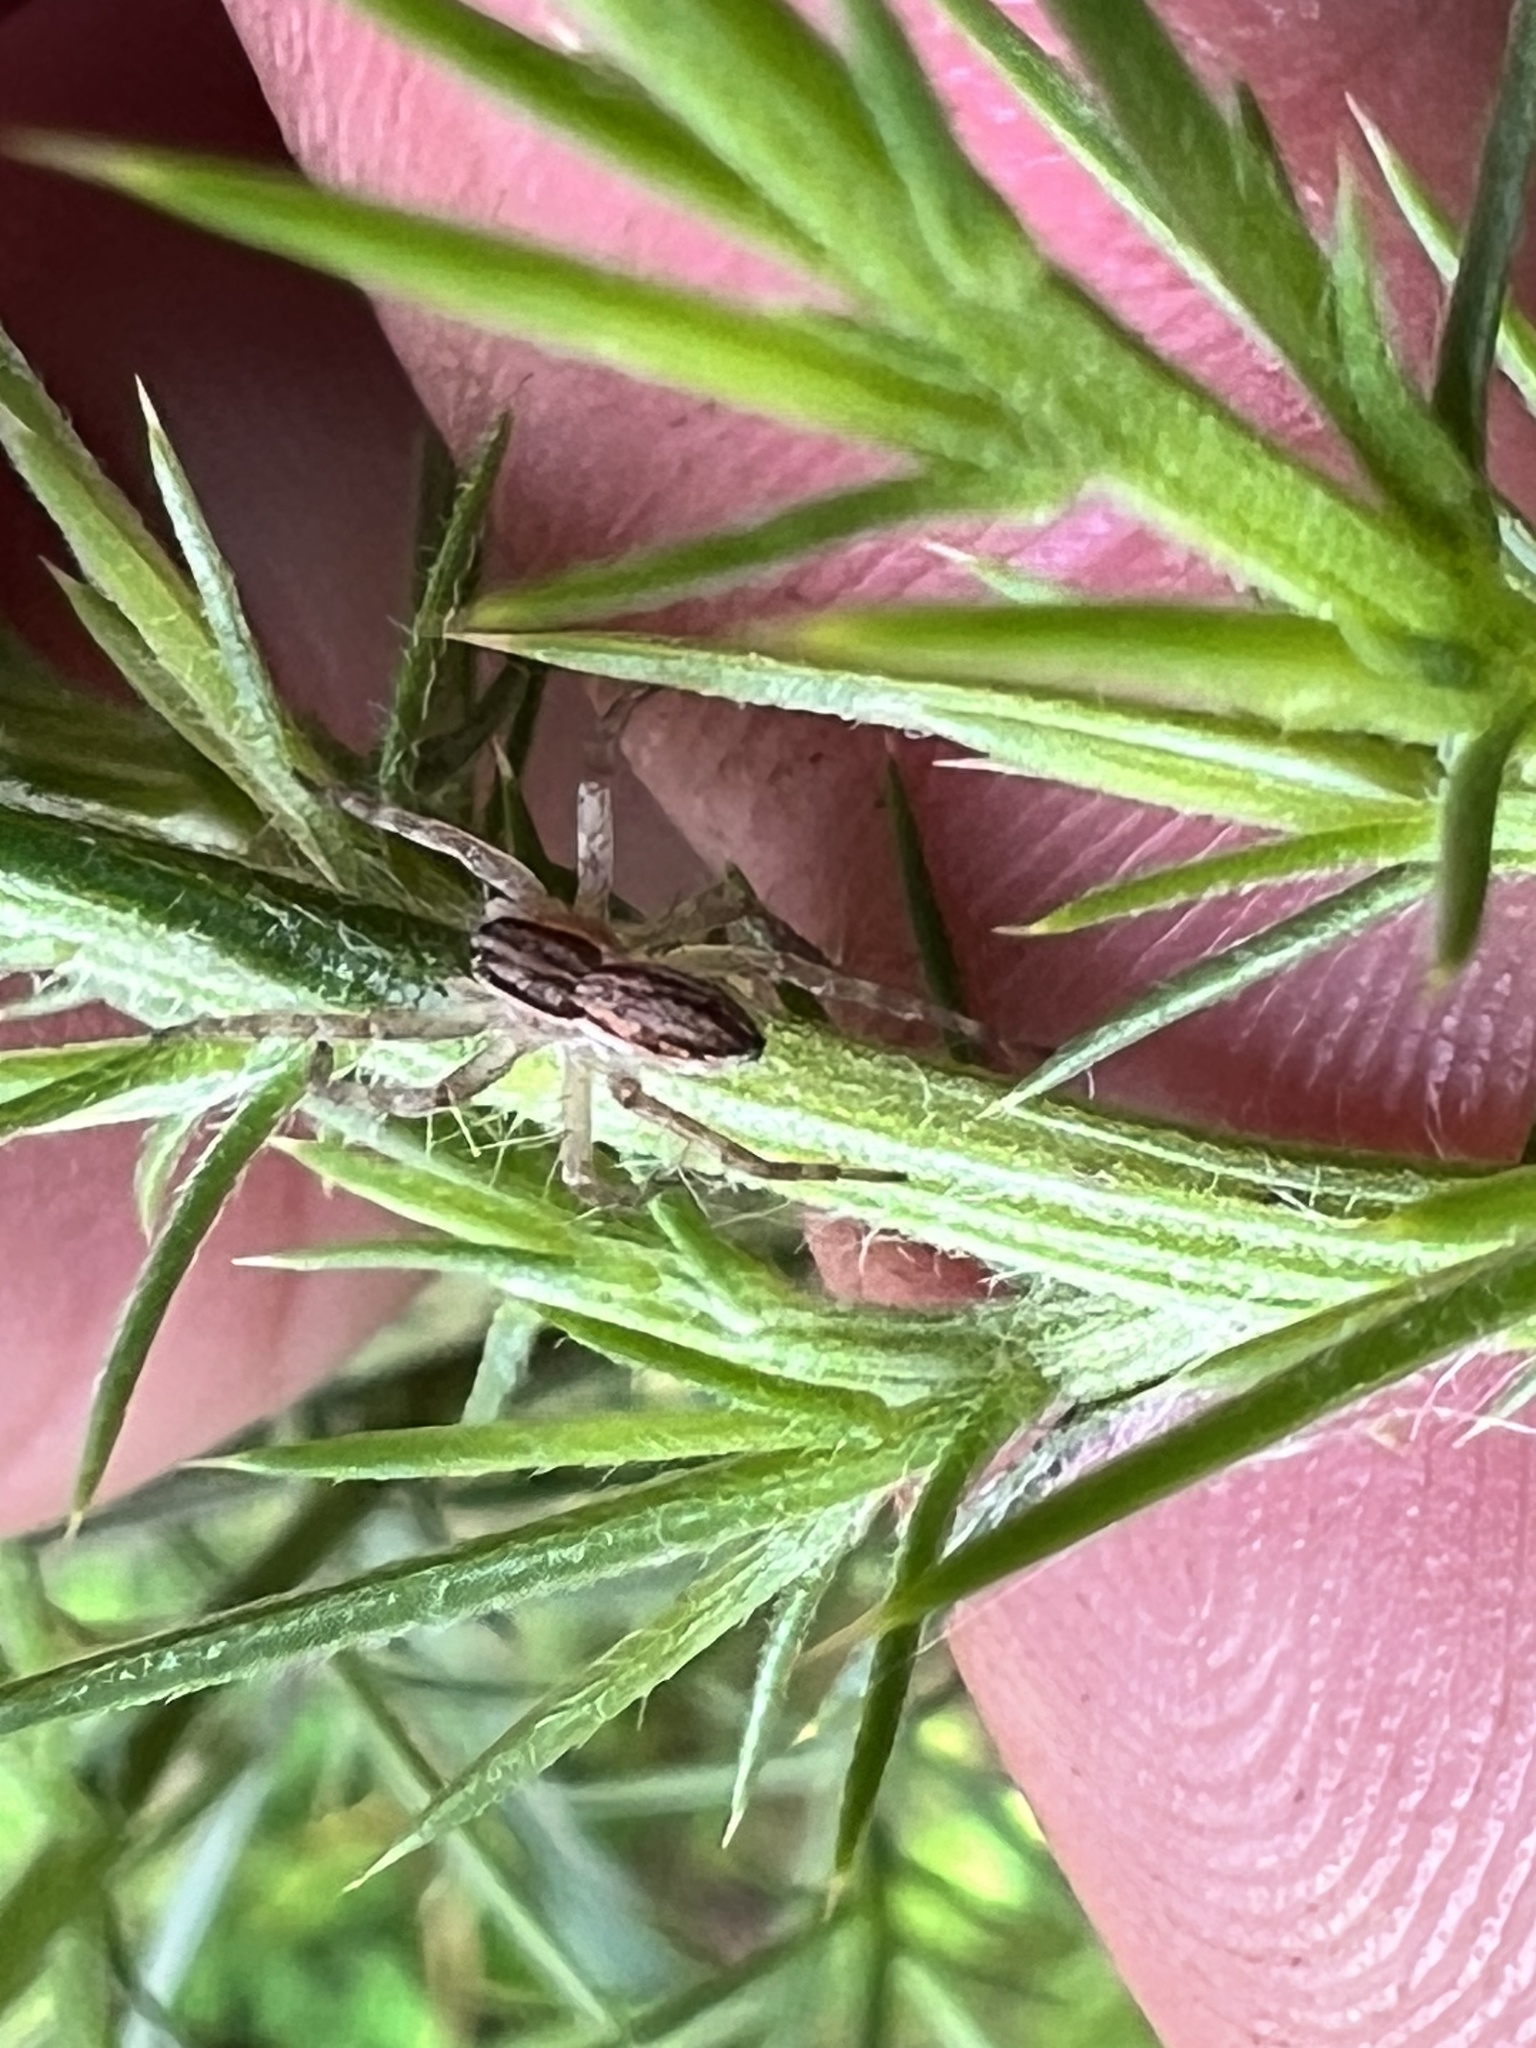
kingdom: Animalia
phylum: Arthropoda
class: Arachnida
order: Araneae
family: Pisauridae
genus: Dolomedes
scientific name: Dolomedes minor
